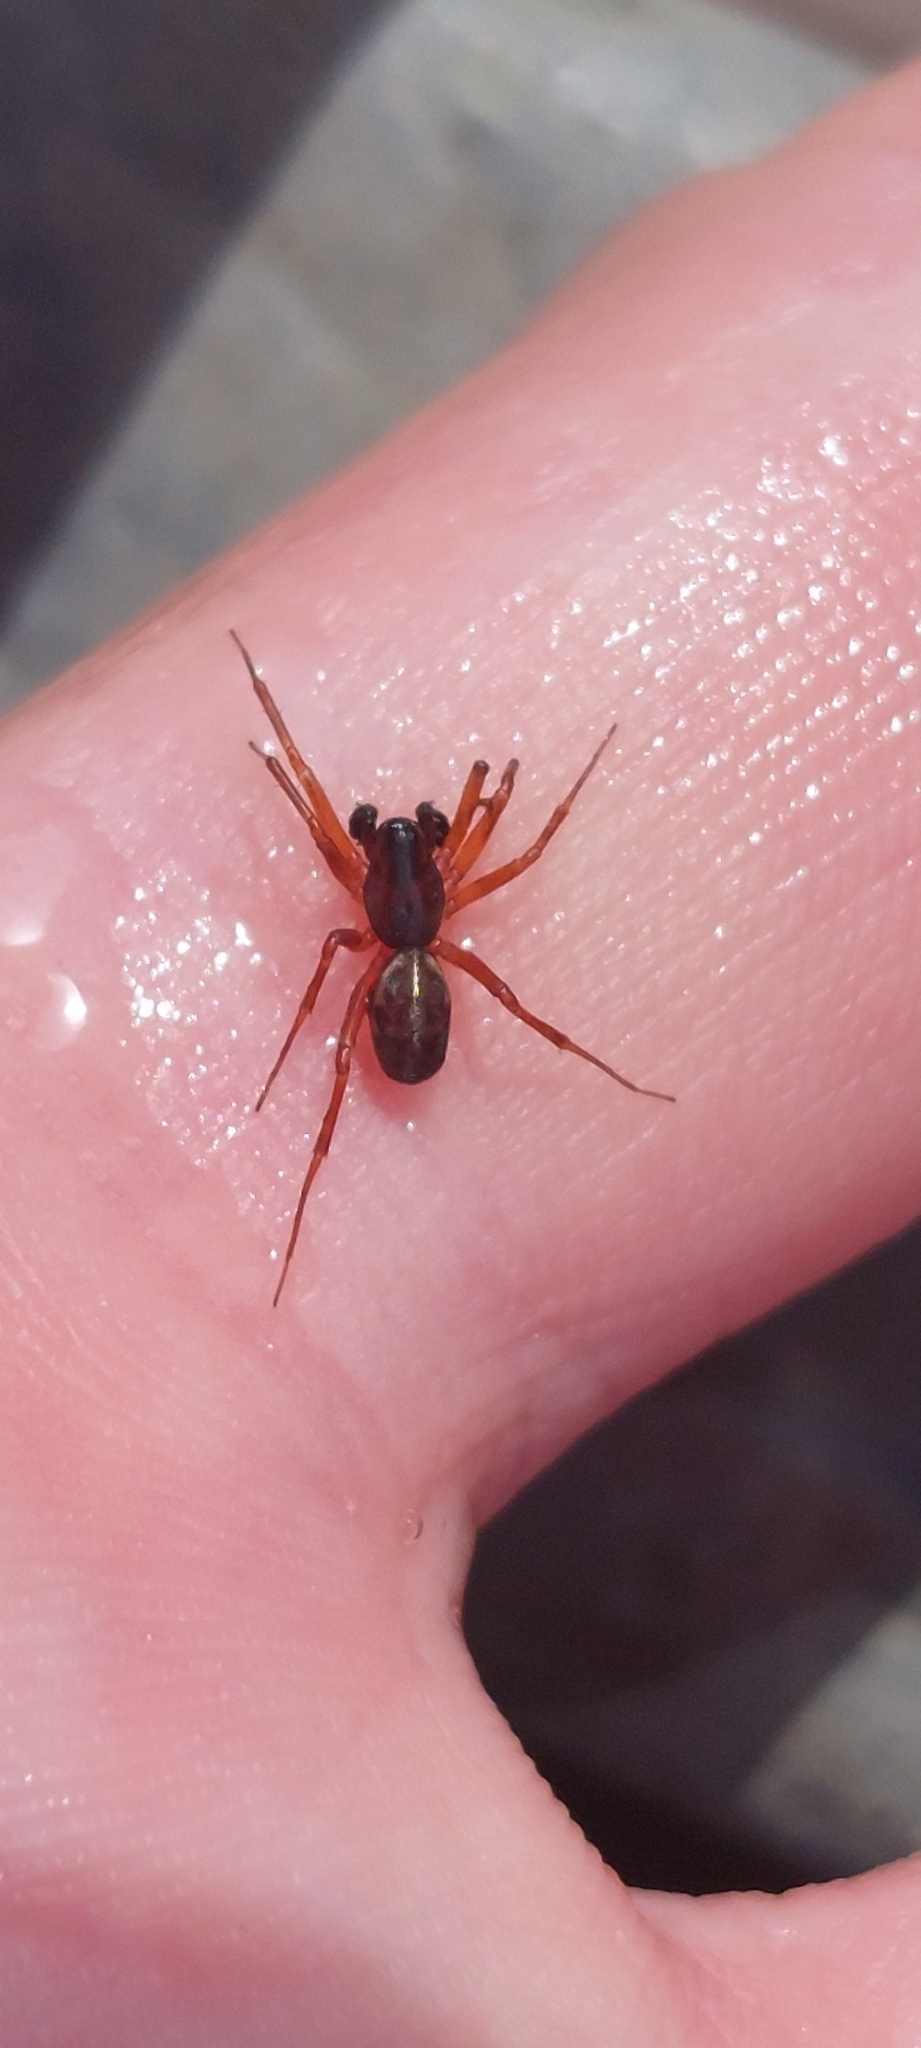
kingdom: Animalia
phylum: Arthropoda
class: Arachnida
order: Araneae
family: Linyphiidae
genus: Neriene
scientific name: Neriene clathrata
